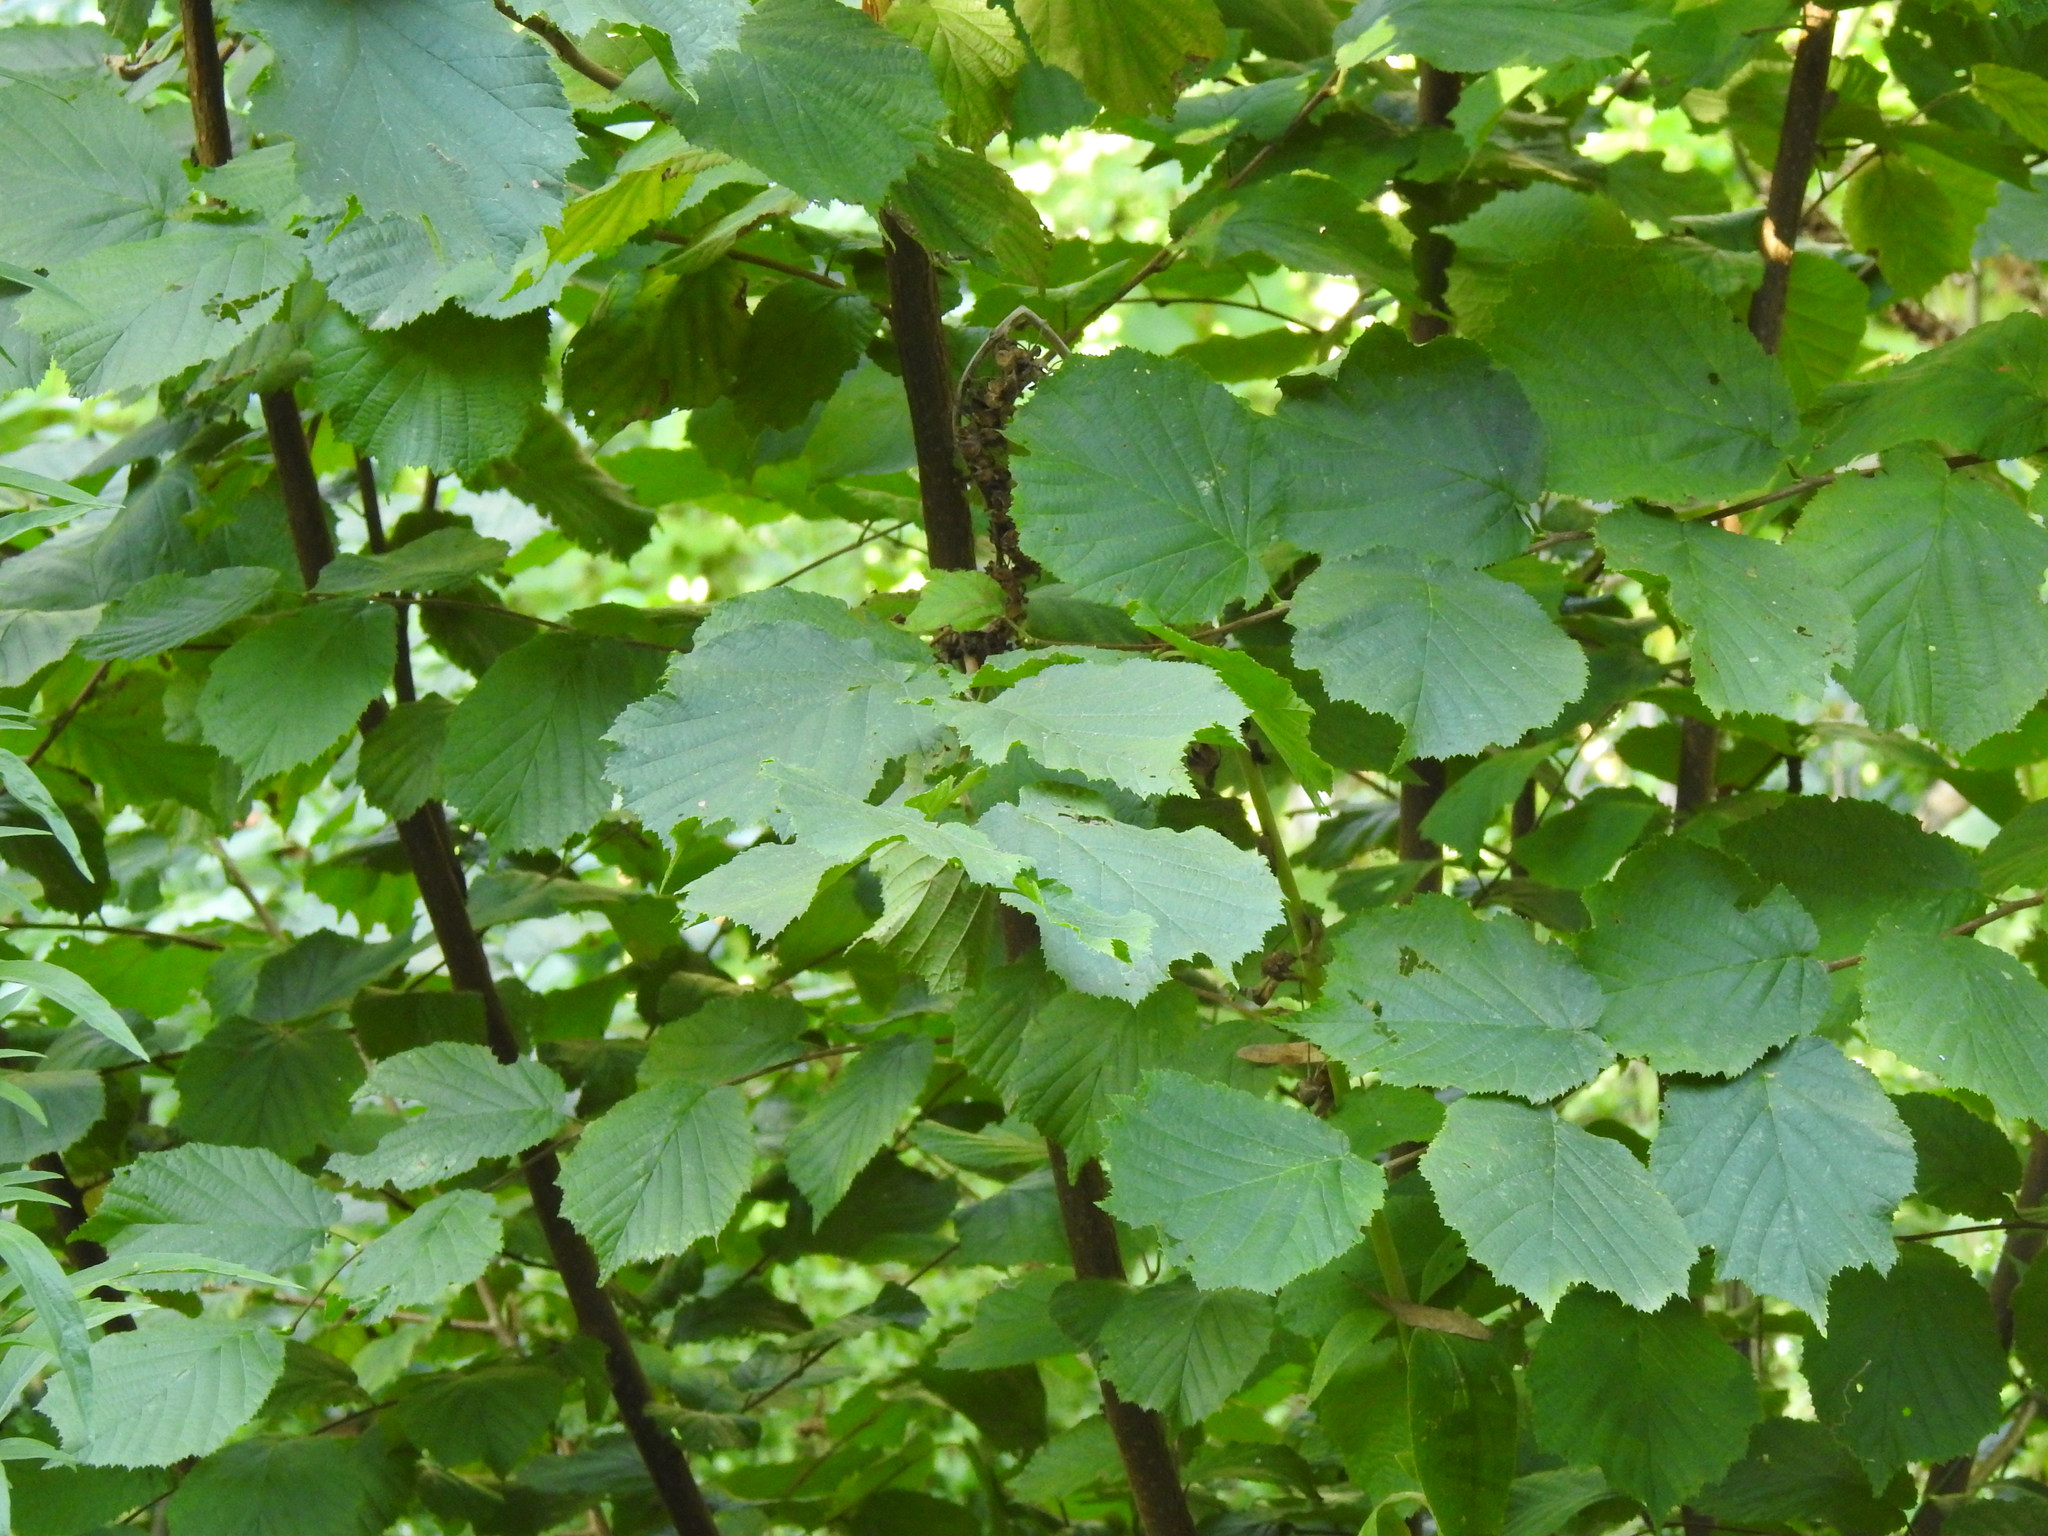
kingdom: Plantae
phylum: Tracheophyta
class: Magnoliopsida
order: Fagales
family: Betulaceae
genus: Corylus
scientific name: Corylus avellana
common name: European hazel
